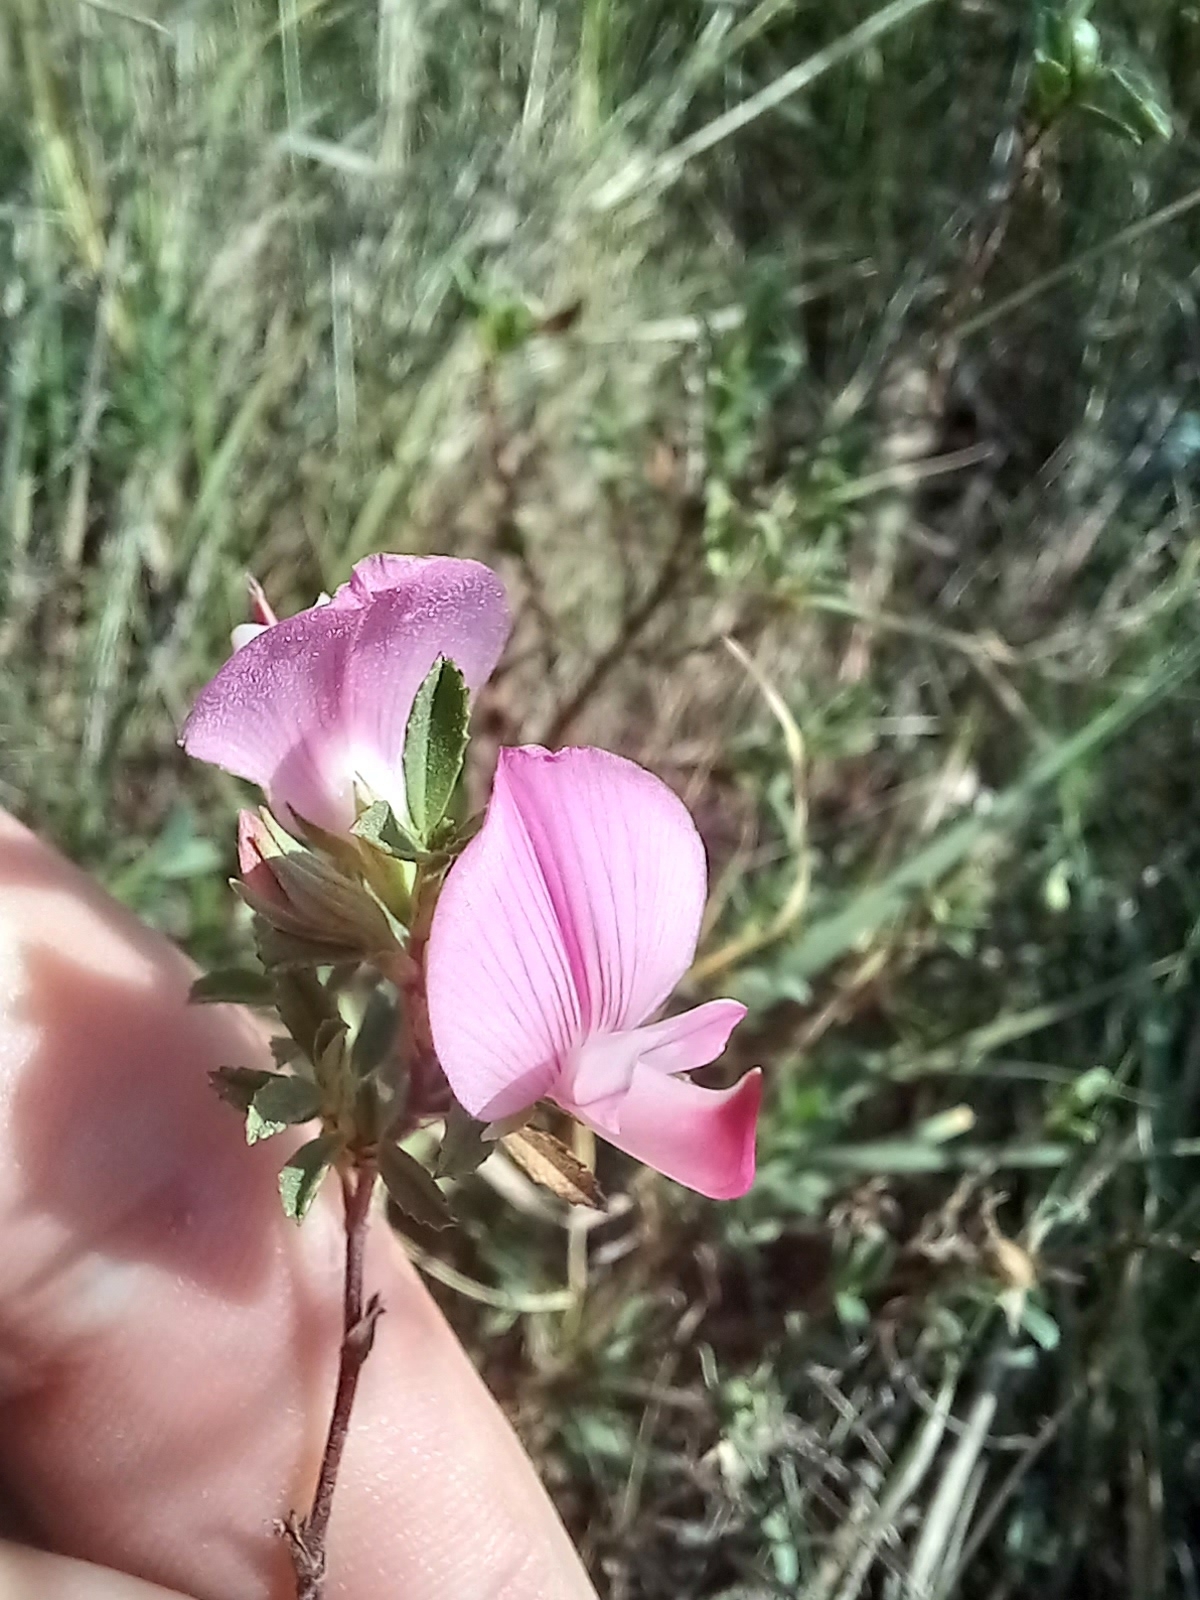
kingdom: Plantae
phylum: Tracheophyta
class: Magnoliopsida
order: Fabales
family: Fabaceae
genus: Ononis
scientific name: Ononis spinosa
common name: Spiny restharrow
